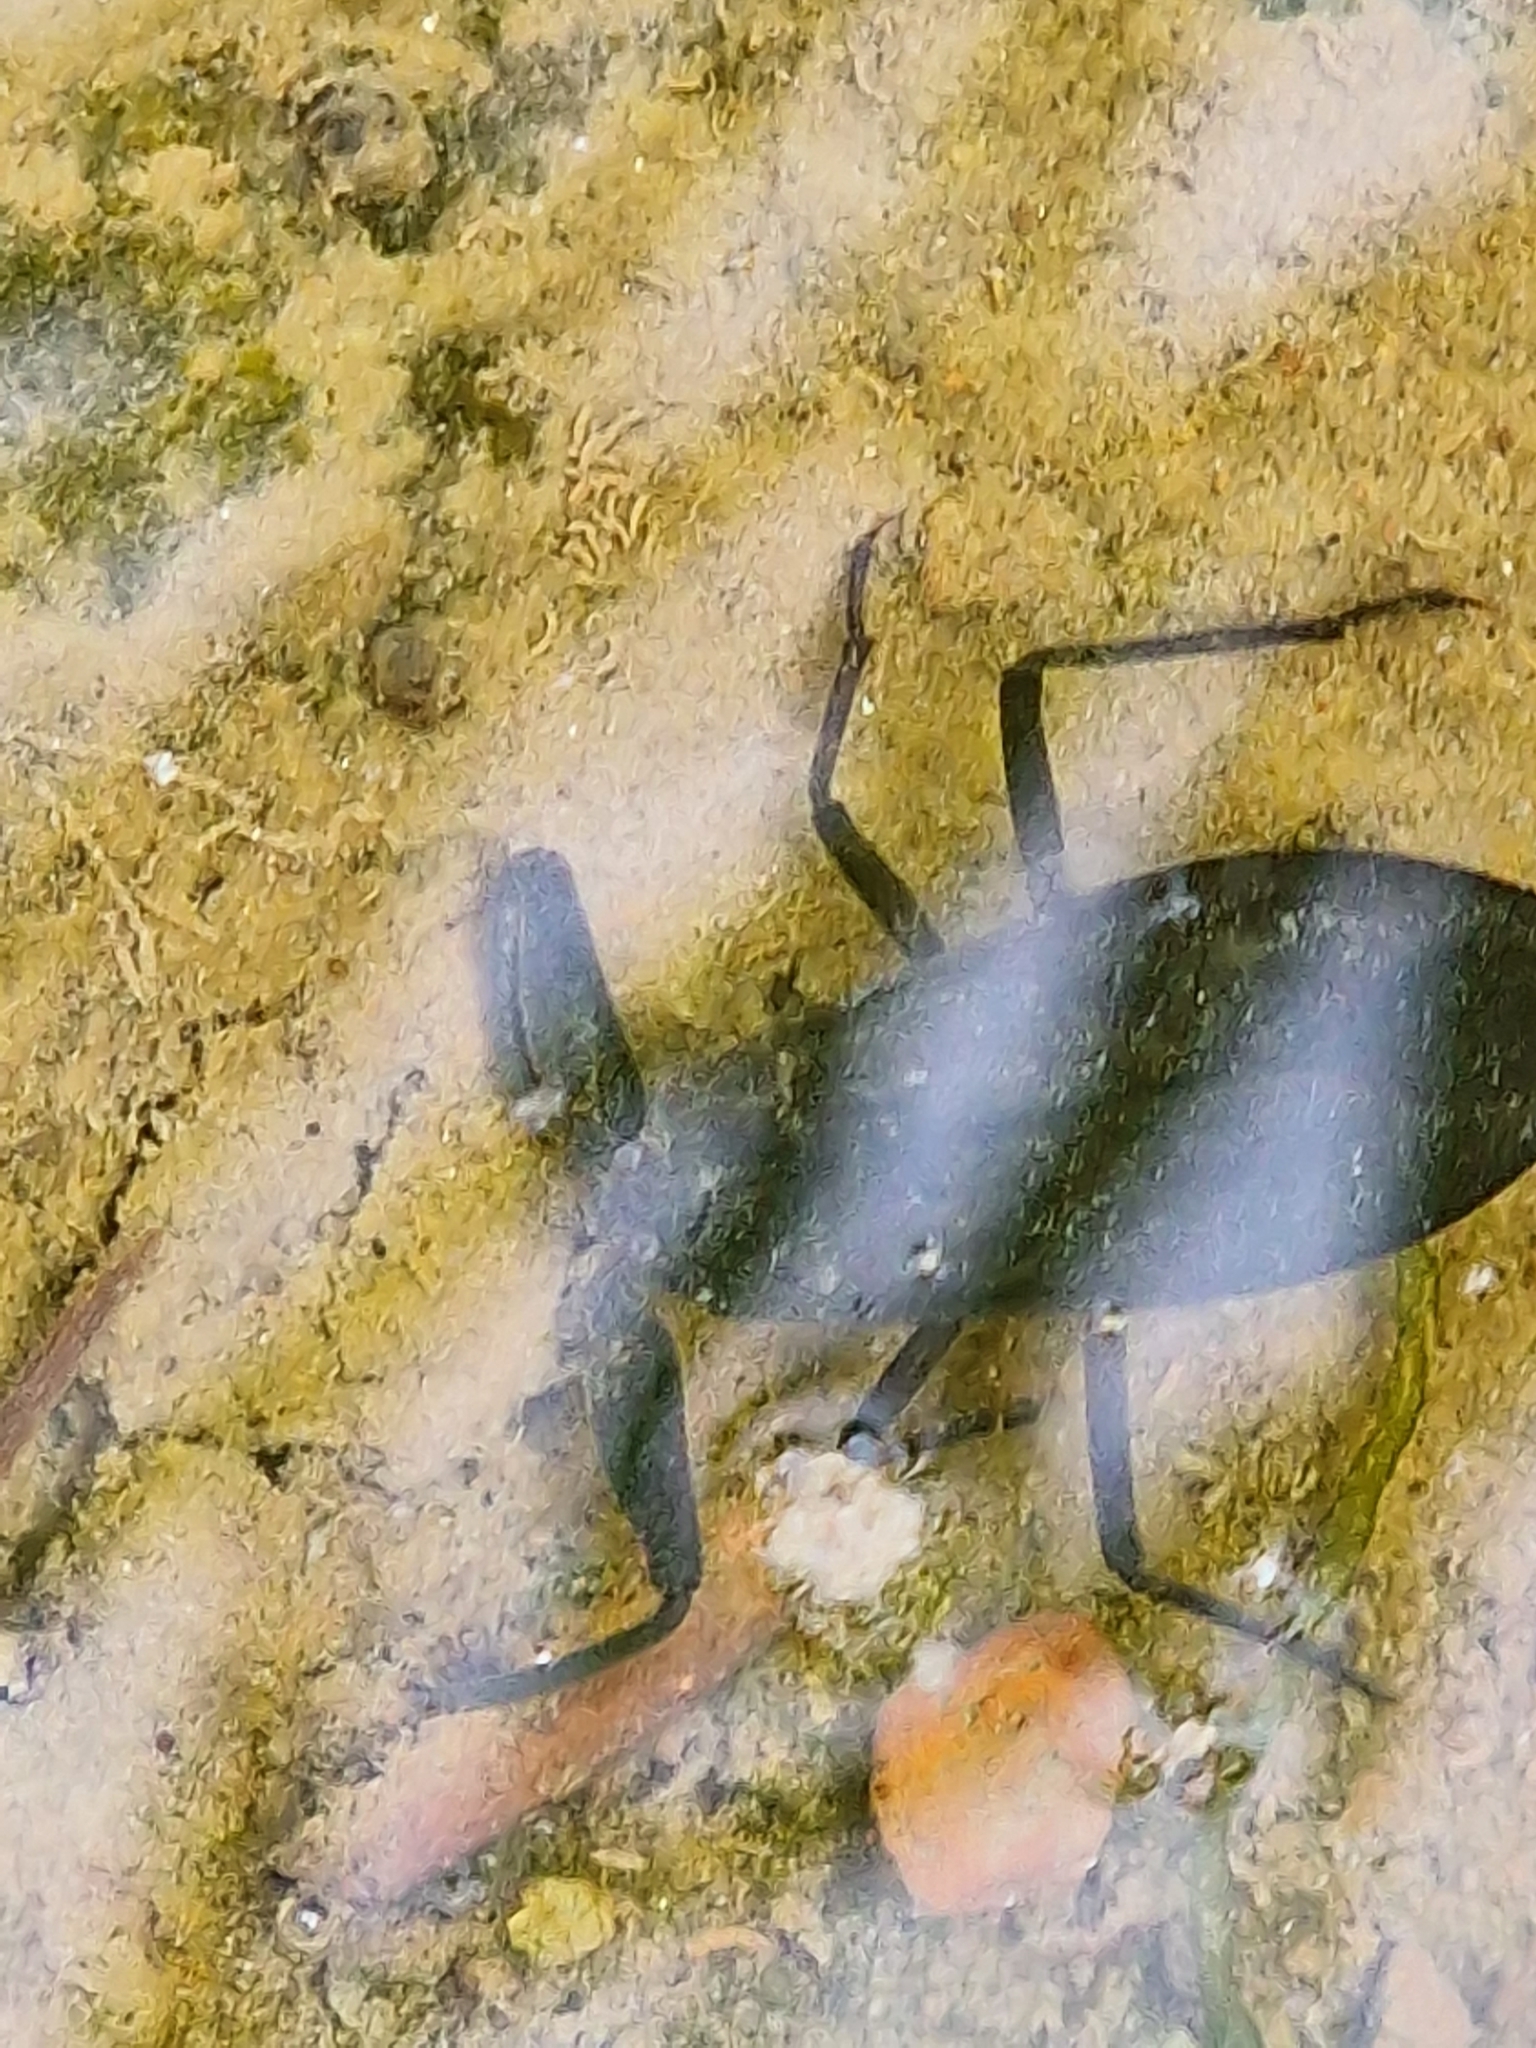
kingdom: Animalia
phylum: Arthropoda
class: Insecta
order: Hemiptera
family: Nepidae
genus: Nepa
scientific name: Nepa cinerea
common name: Water scorpion
